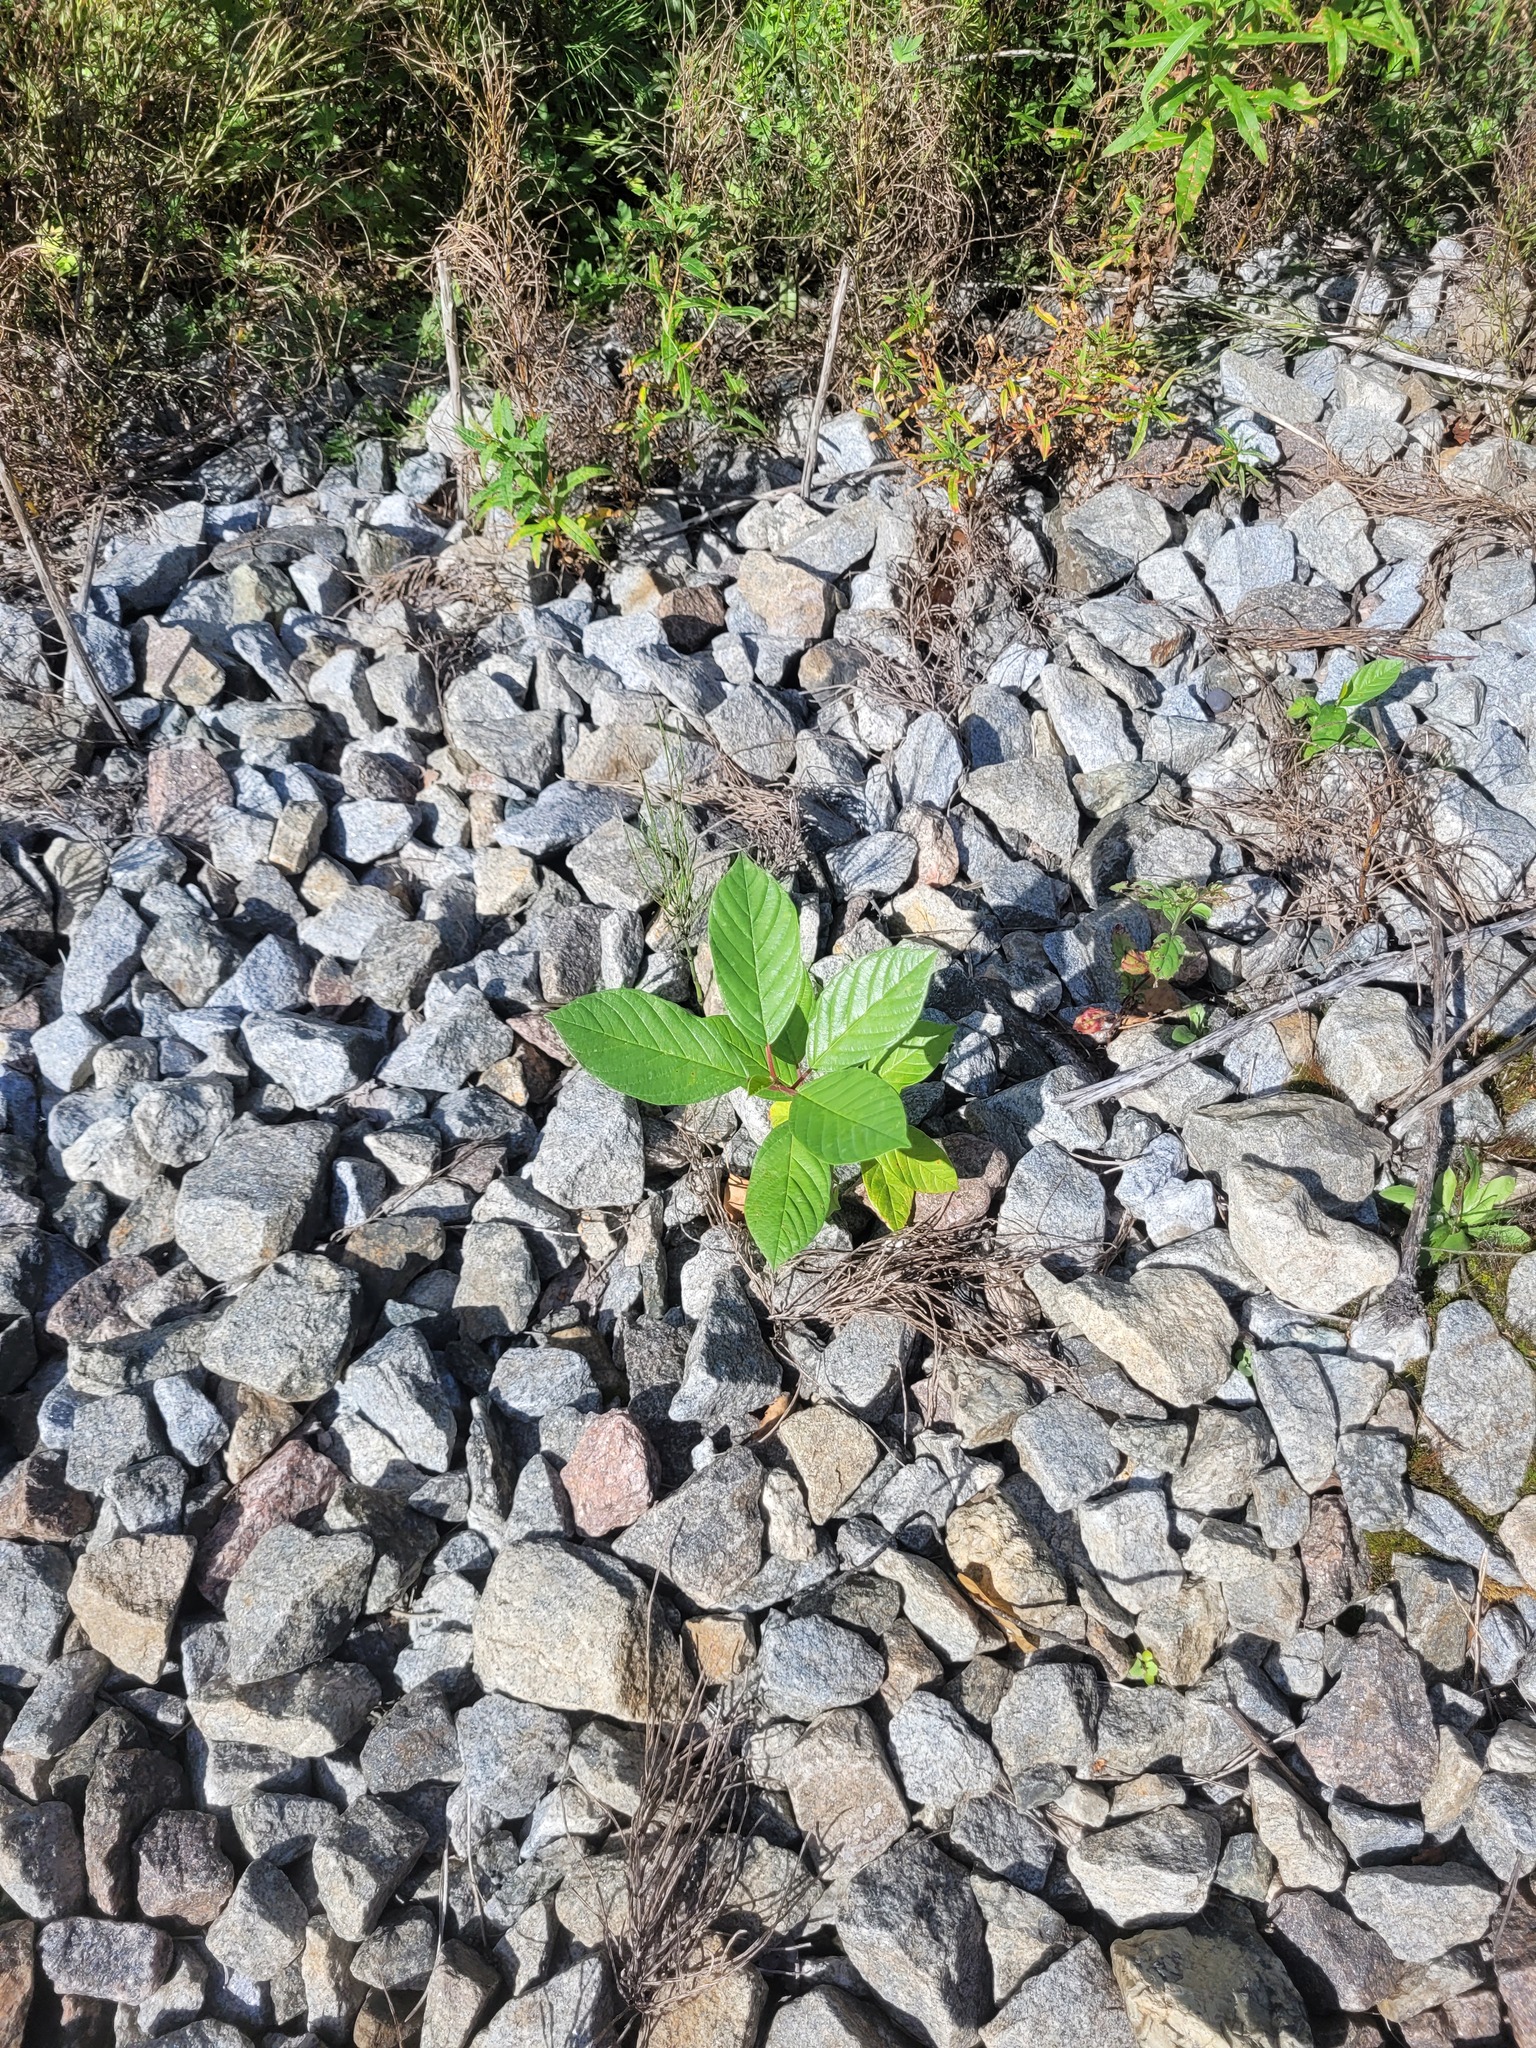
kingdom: Plantae
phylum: Tracheophyta
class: Magnoliopsida
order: Rosales
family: Rhamnaceae
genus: Frangula
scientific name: Frangula alnus
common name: Alder buckthorn
